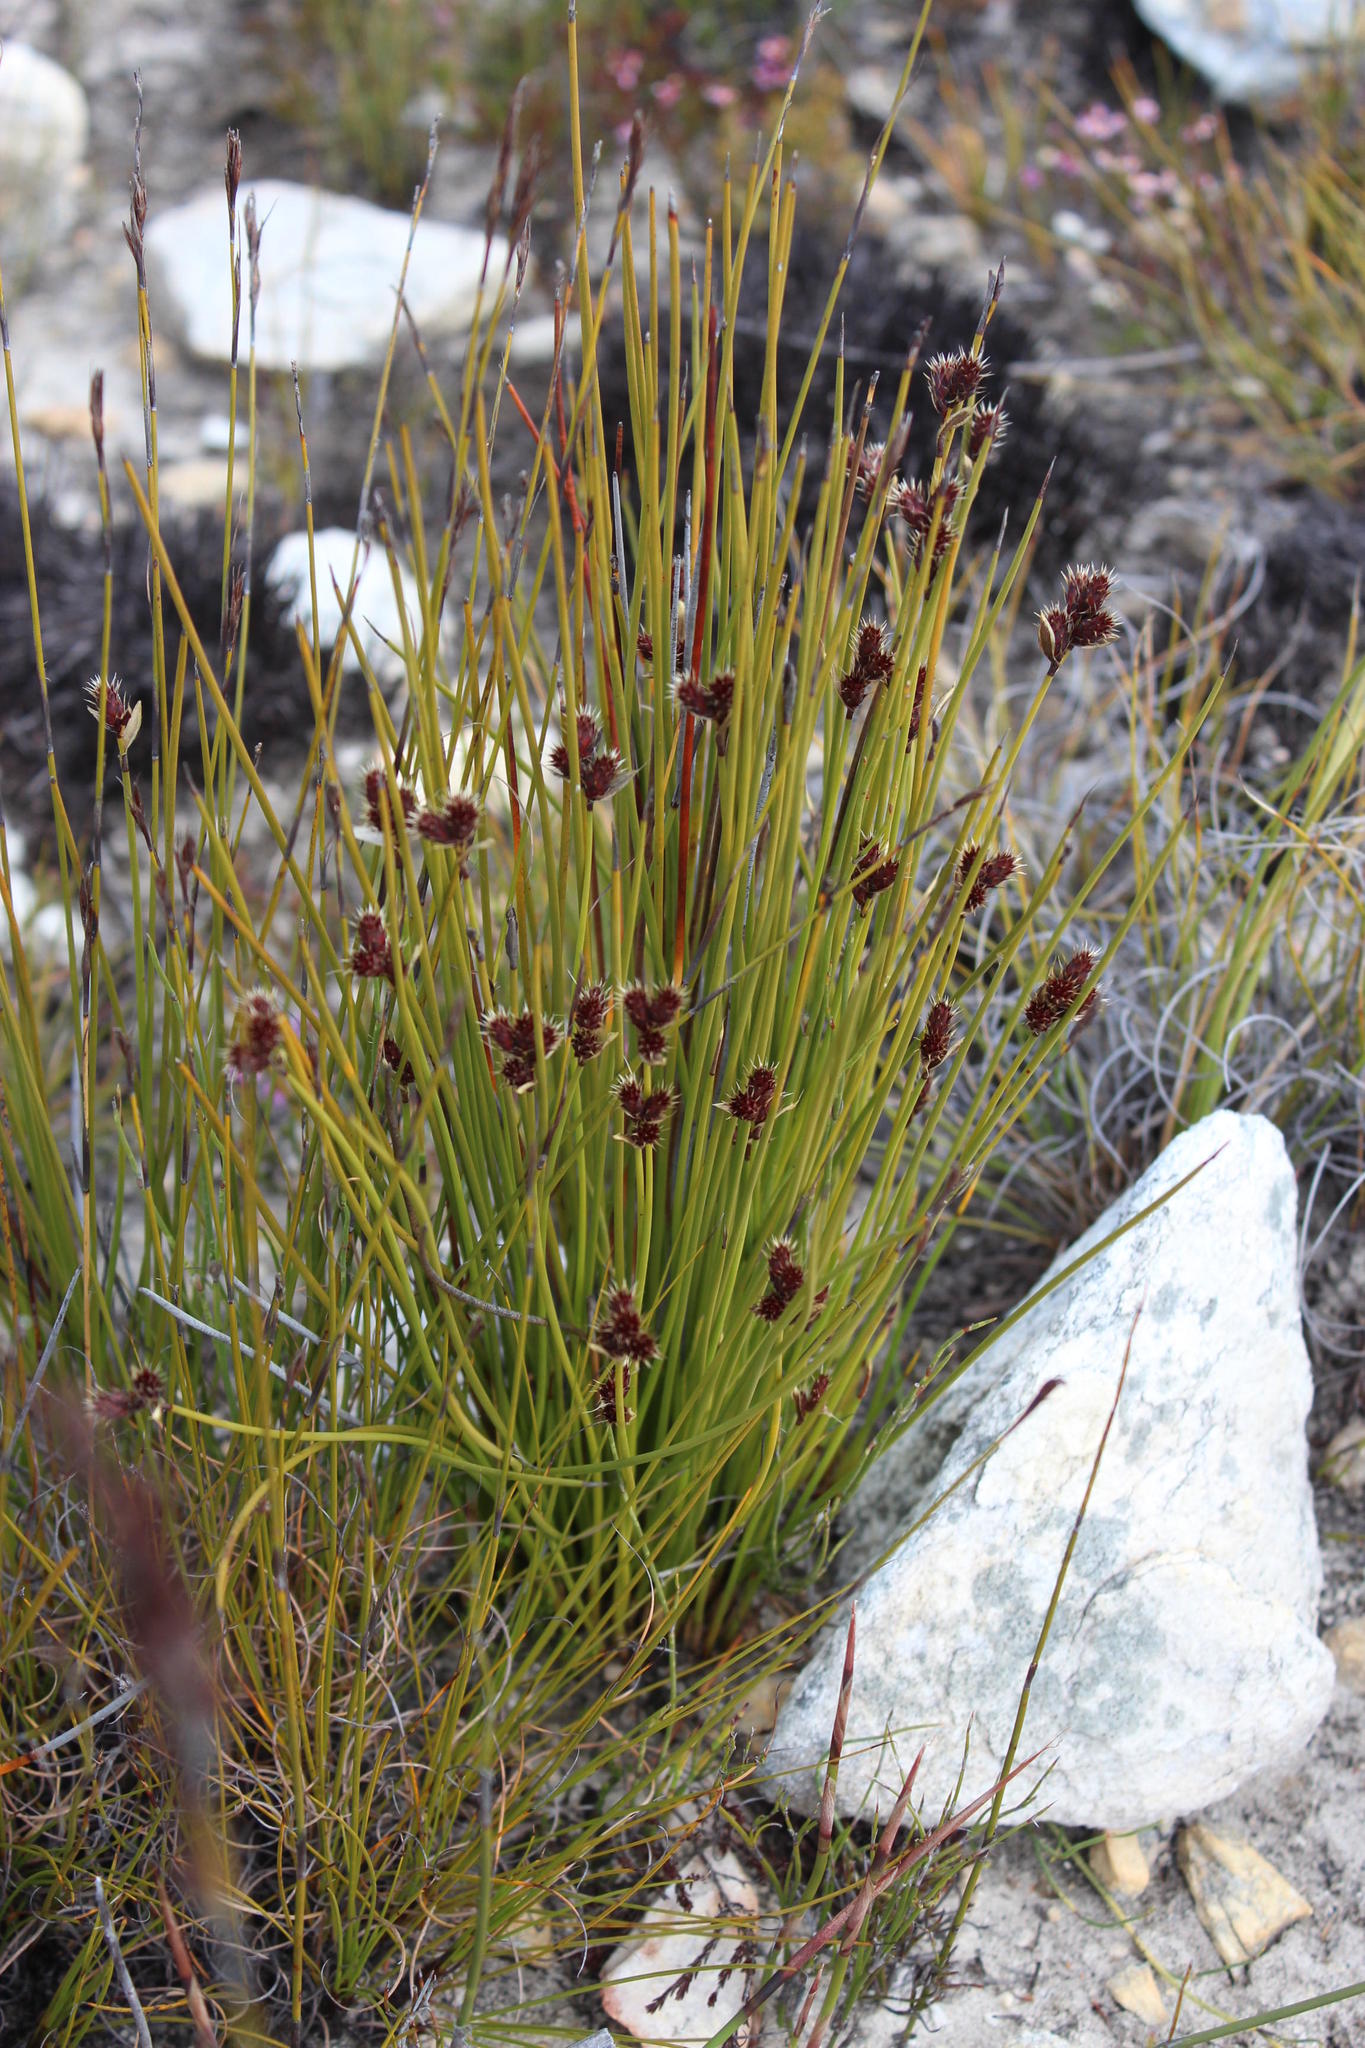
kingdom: Plantae
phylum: Tracheophyta
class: Liliopsida
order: Poales
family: Restionaceae
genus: Hypodiscus
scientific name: Hypodiscus aristatus
